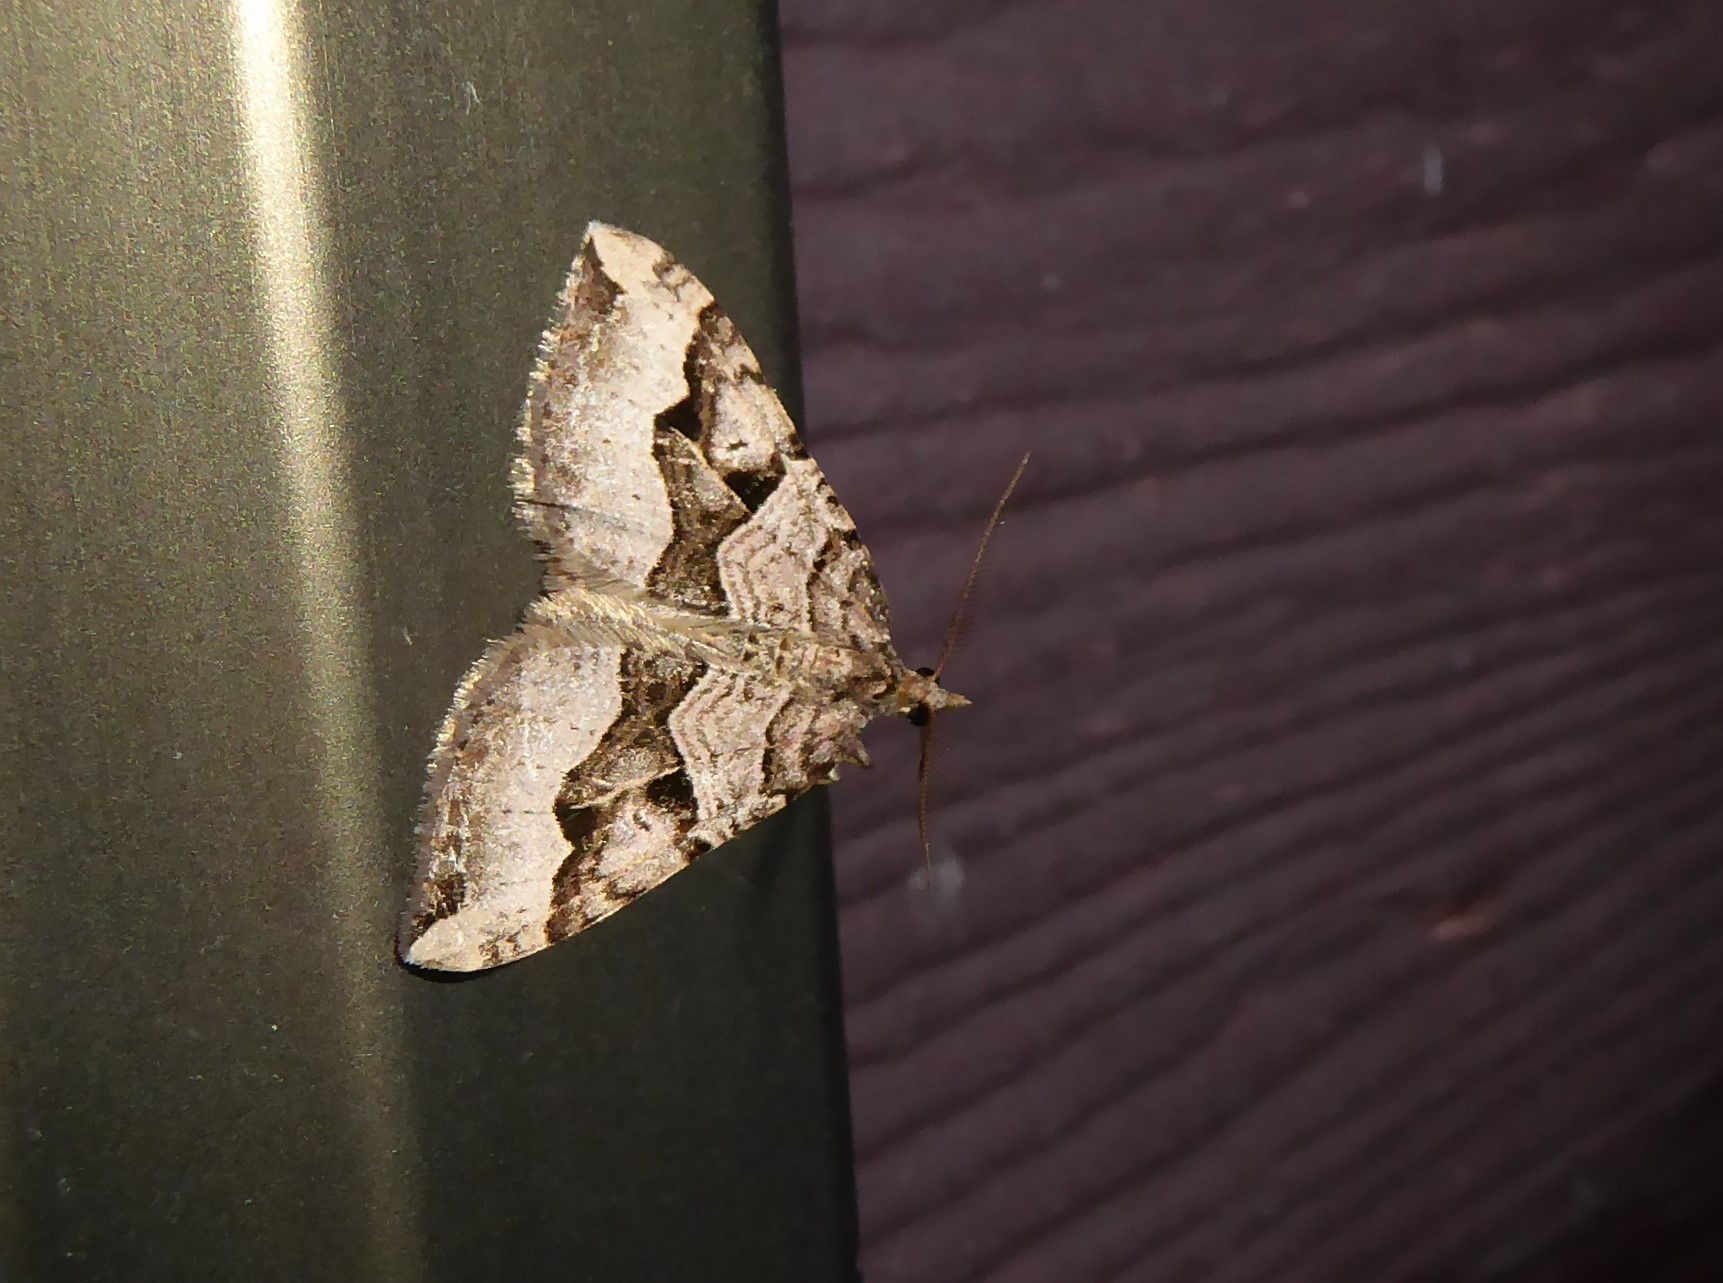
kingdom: Animalia
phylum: Arthropoda
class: Insecta
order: Lepidoptera
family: Geometridae
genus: Xanthorhoe
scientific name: Xanthorhoe semifissata
